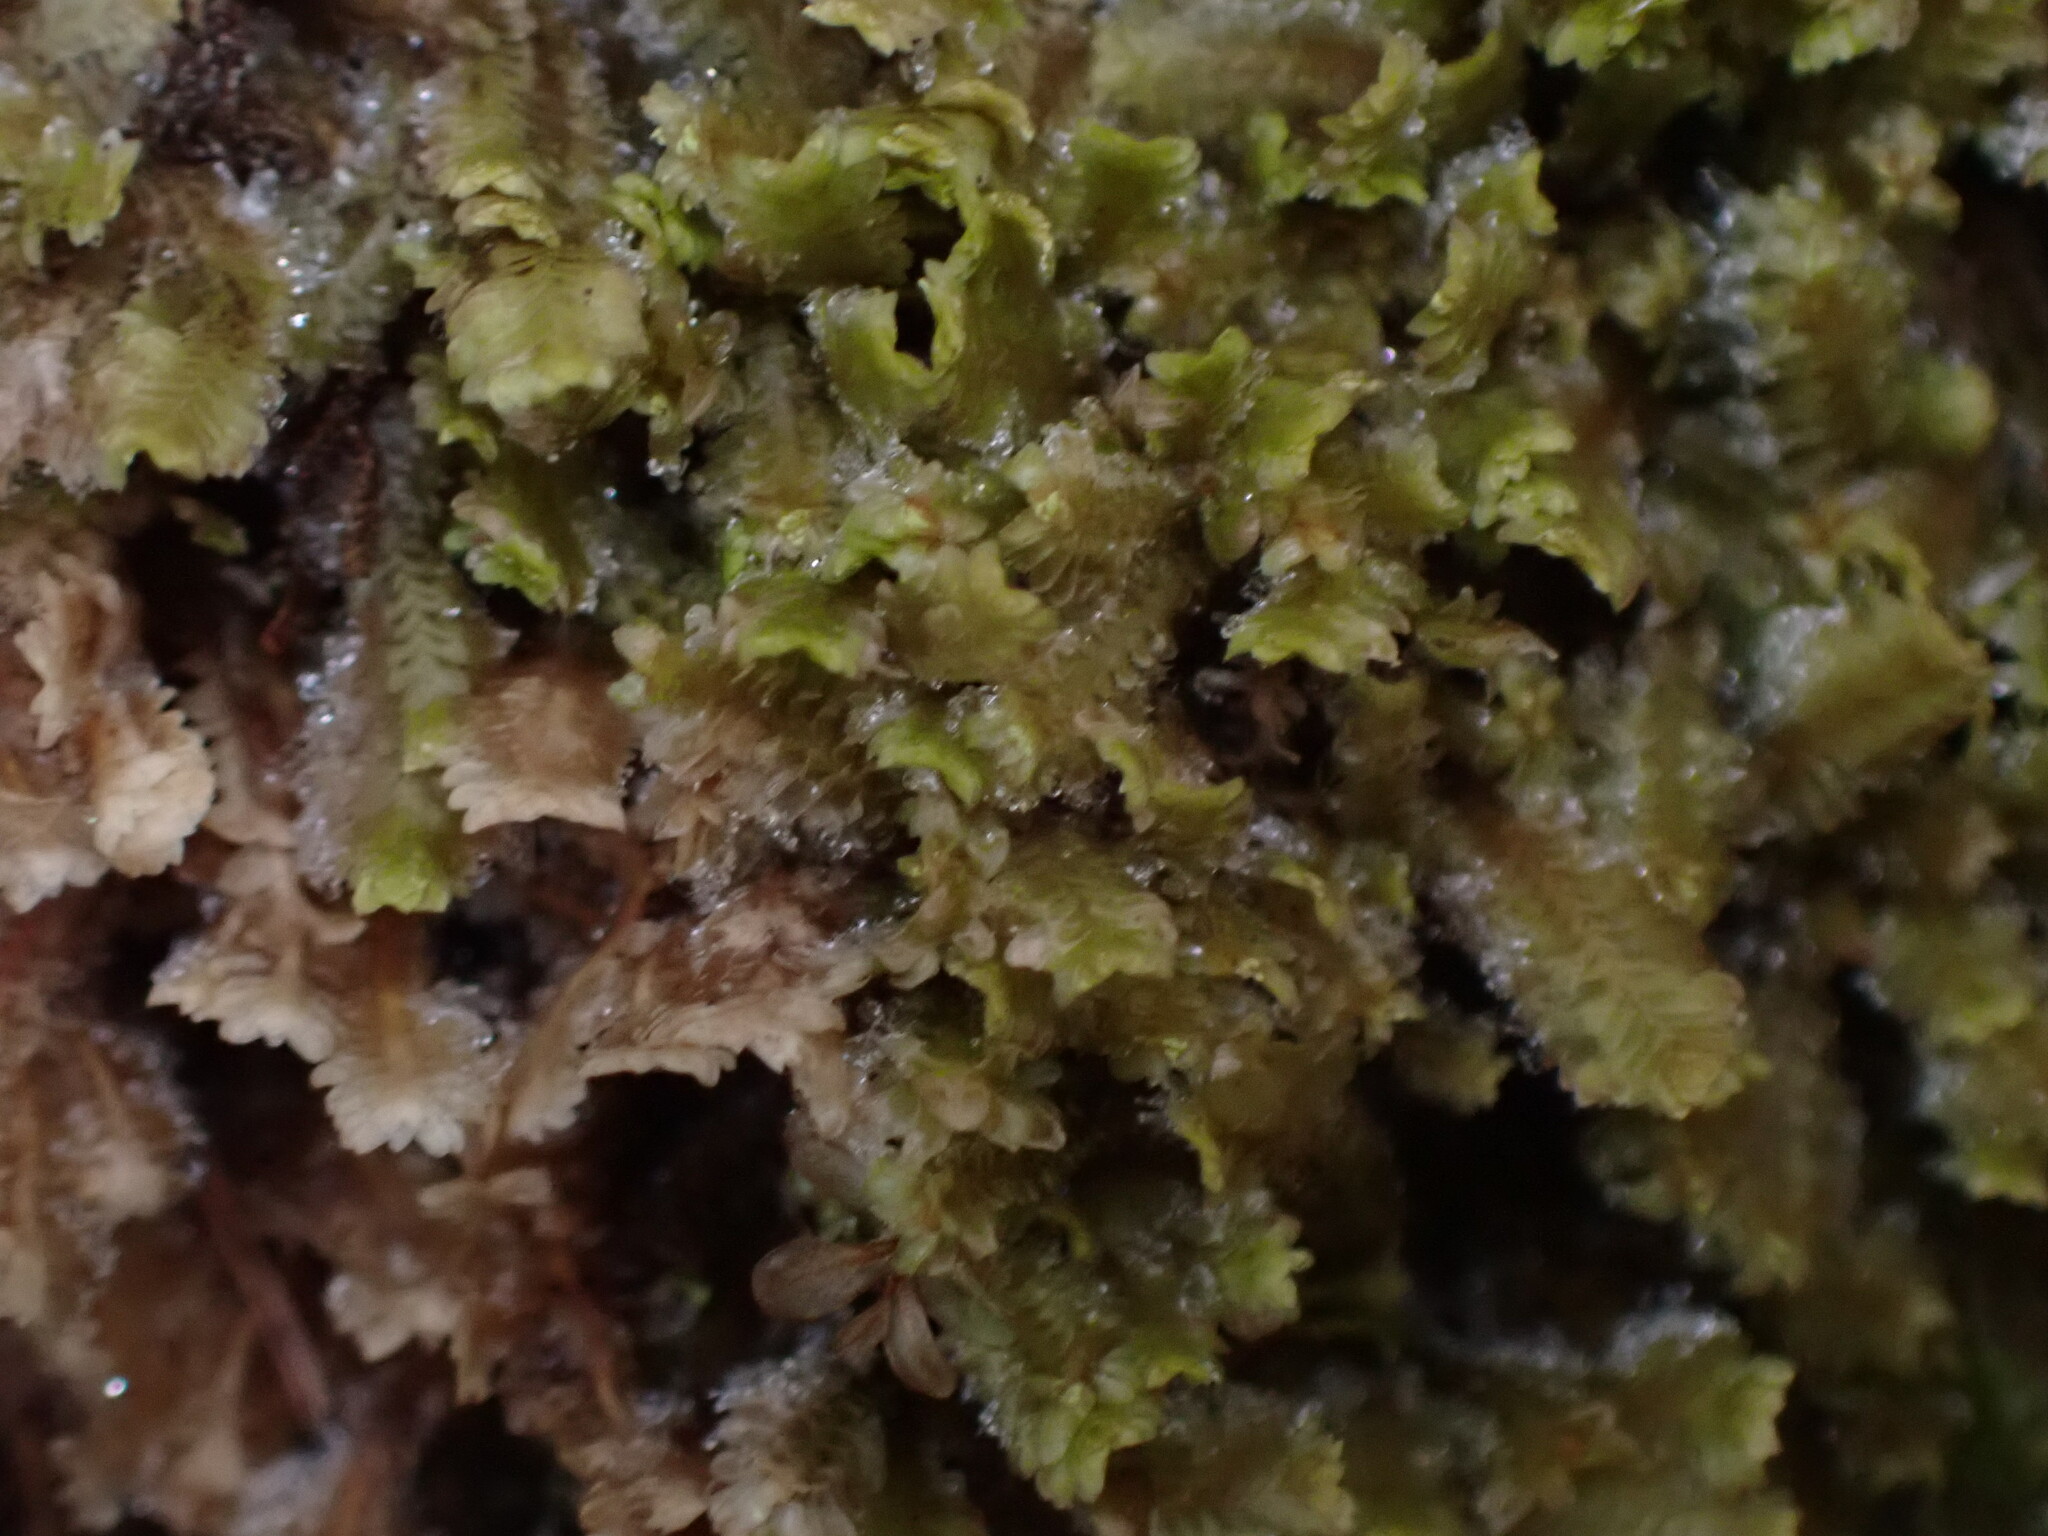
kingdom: Plantae
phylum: Marchantiophyta
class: Jungermanniopsida
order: Jungermanniales
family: Scapaniaceae
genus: Diplophyllum
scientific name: Diplophyllum albicans
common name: White earwort
